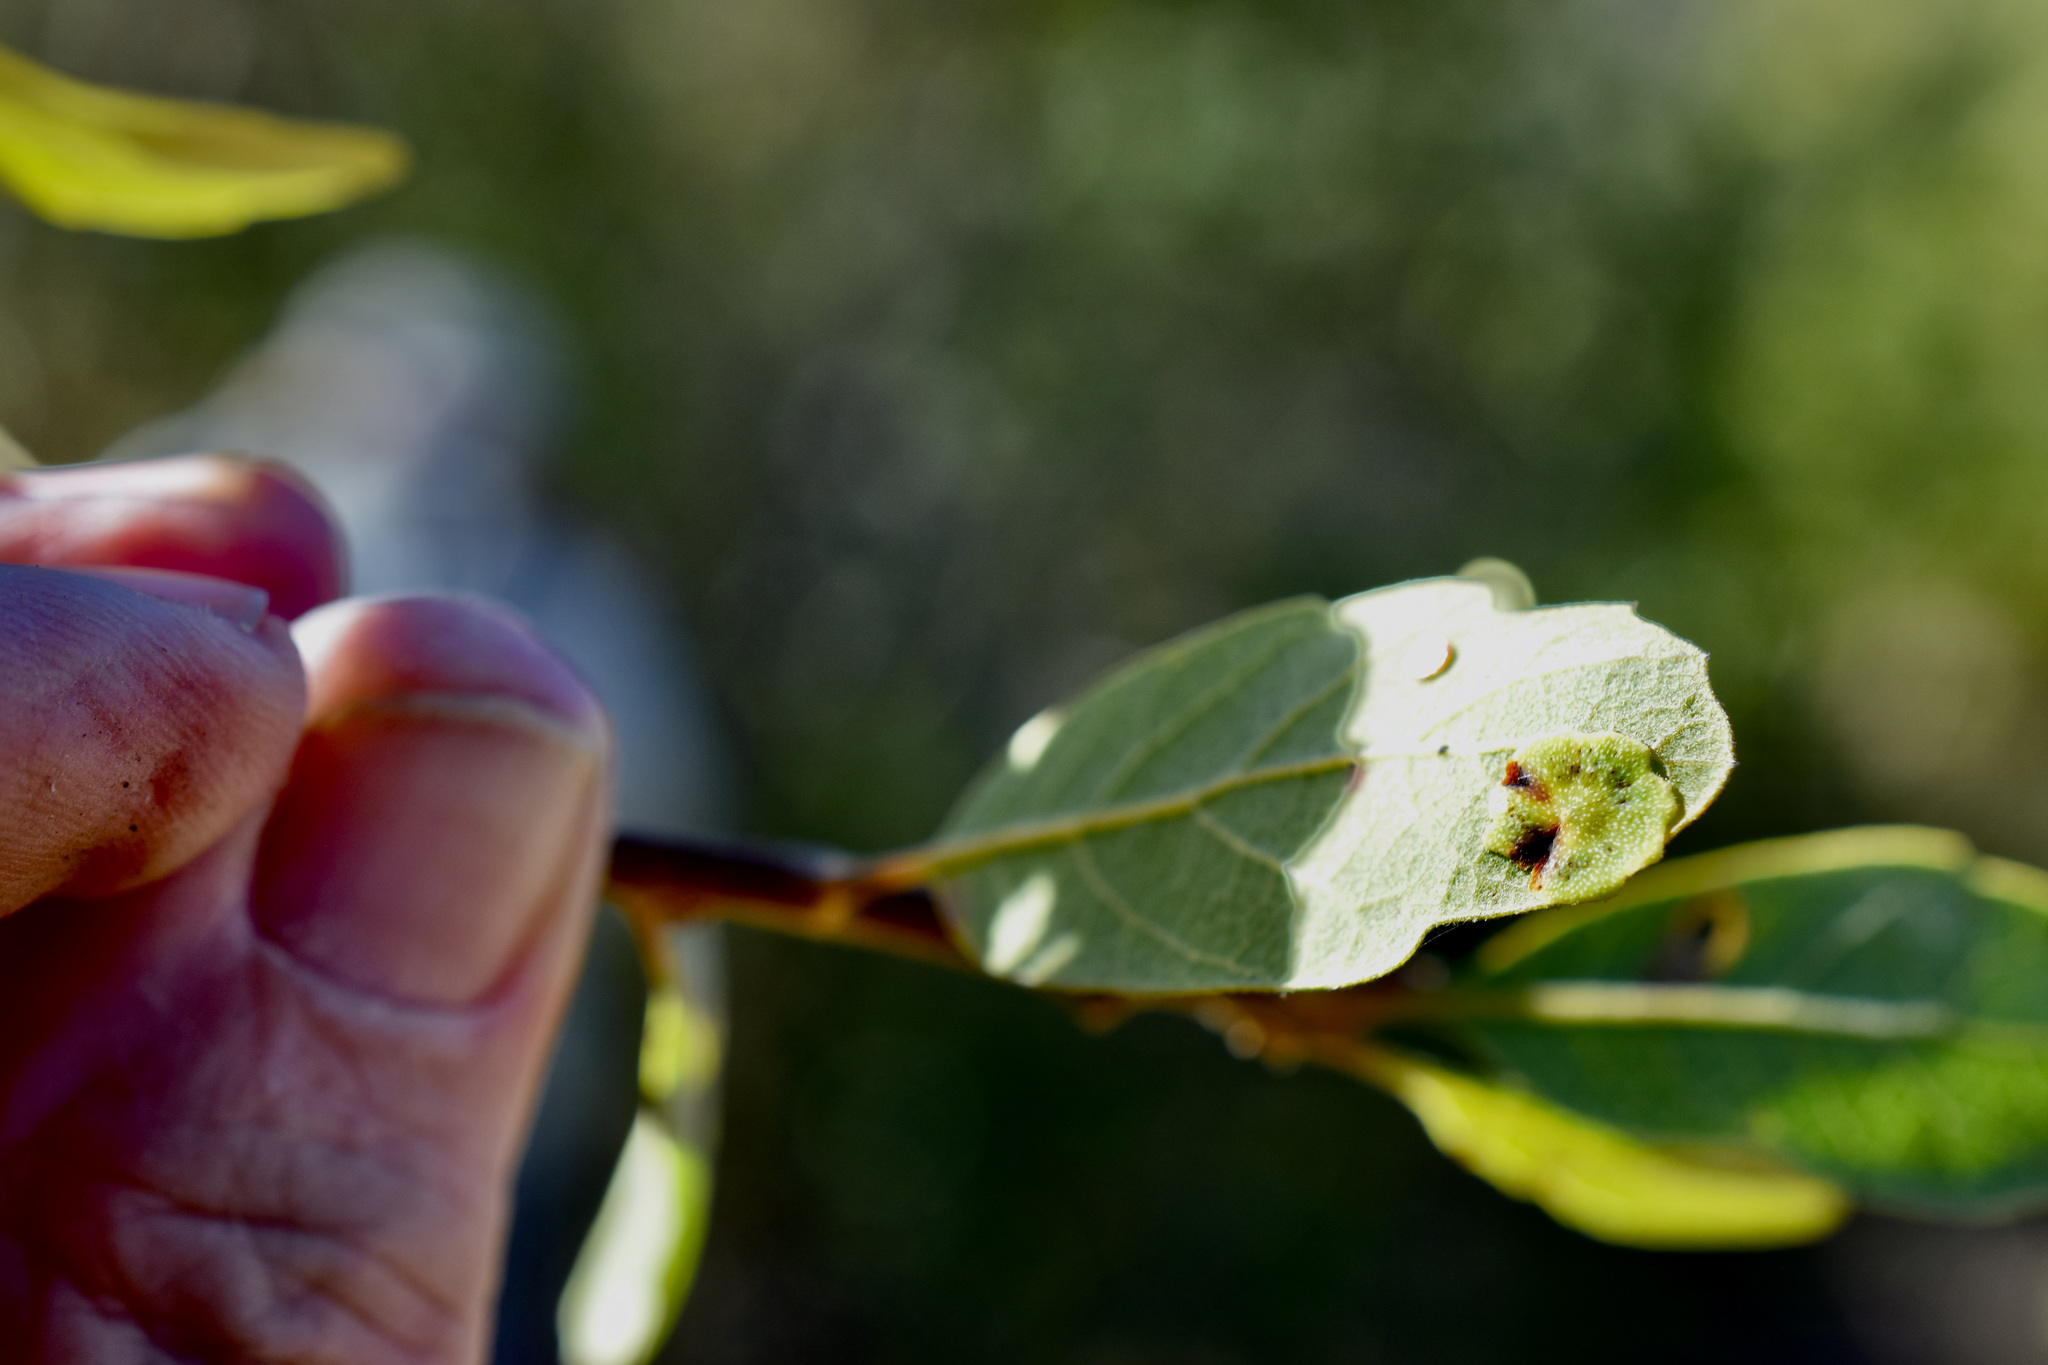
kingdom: Animalia
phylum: Arthropoda
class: Insecta
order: Hymenoptera
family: Cynipidae
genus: Andricus
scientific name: Andricus
